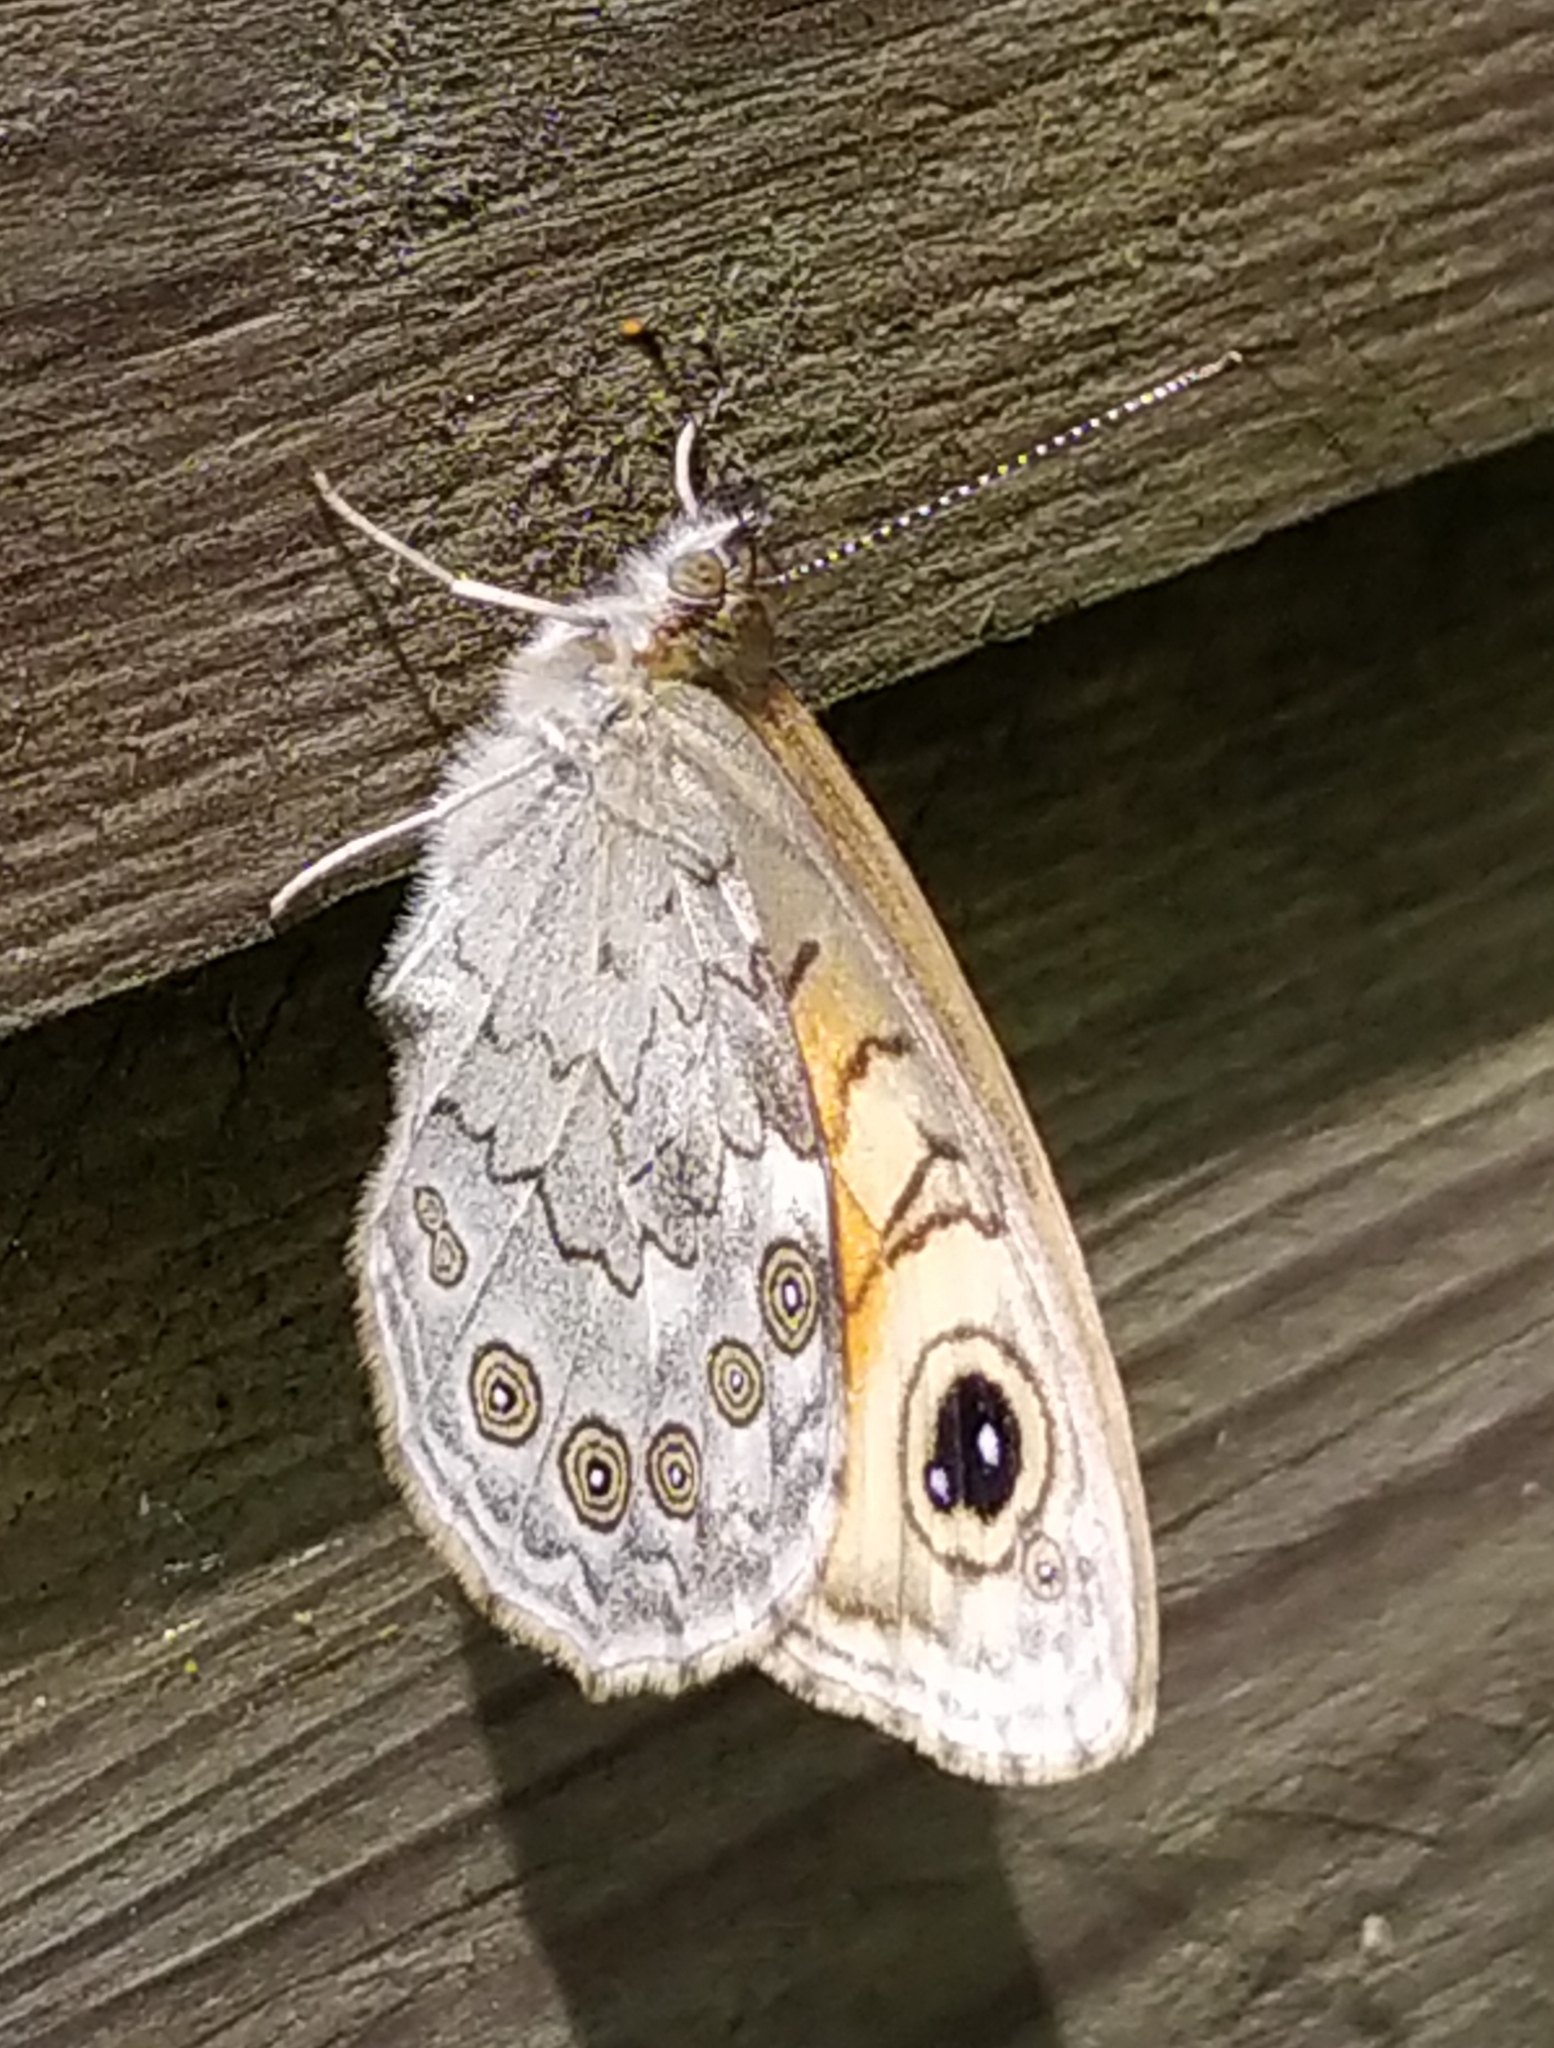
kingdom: Animalia
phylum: Arthropoda
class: Insecta
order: Lepidoptera
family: Nymphalidae
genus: Pararge
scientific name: Pararge Lasiommata maera
